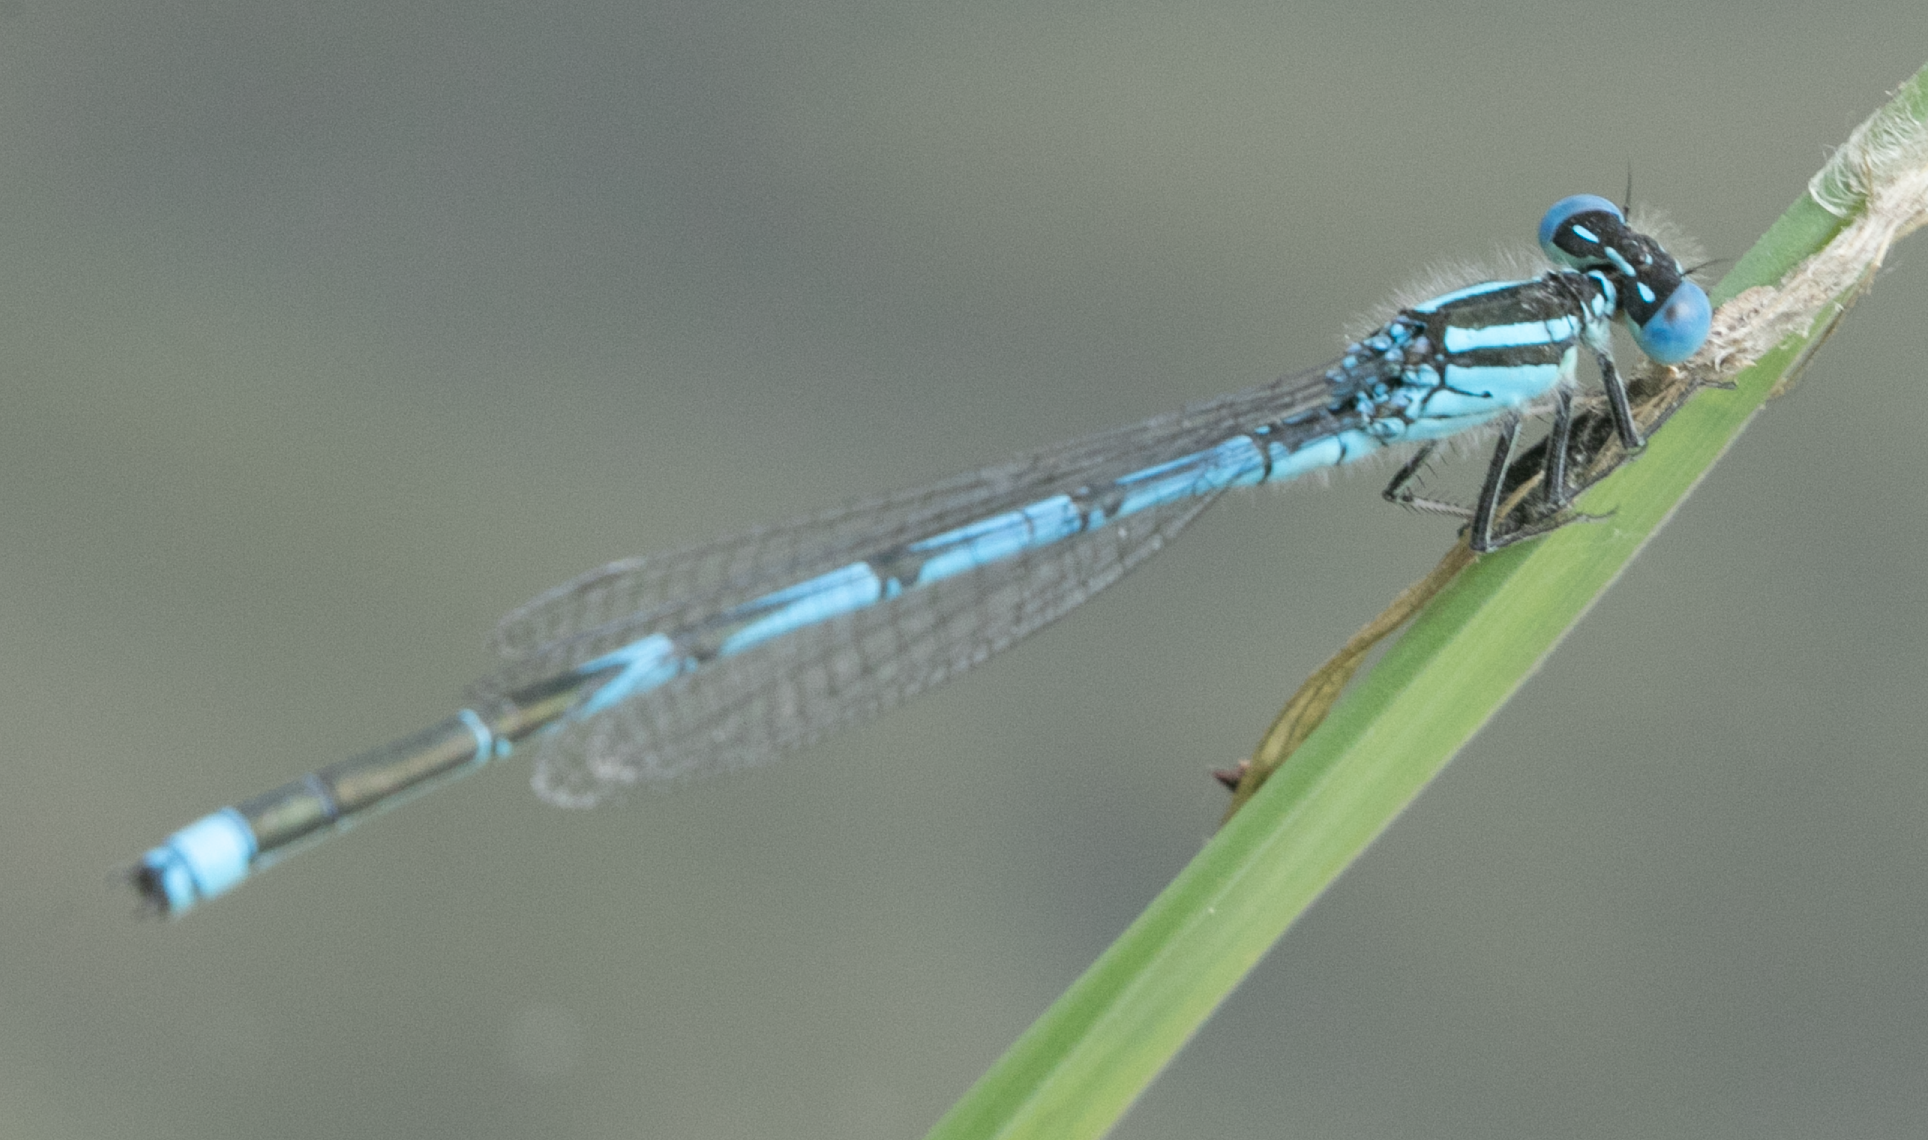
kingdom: Animalia
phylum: Arthropoda
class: Insecta
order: Odonata
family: Coenagrionidae
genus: Erythromma
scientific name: Erythromma lindenii
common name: Blue-eye
